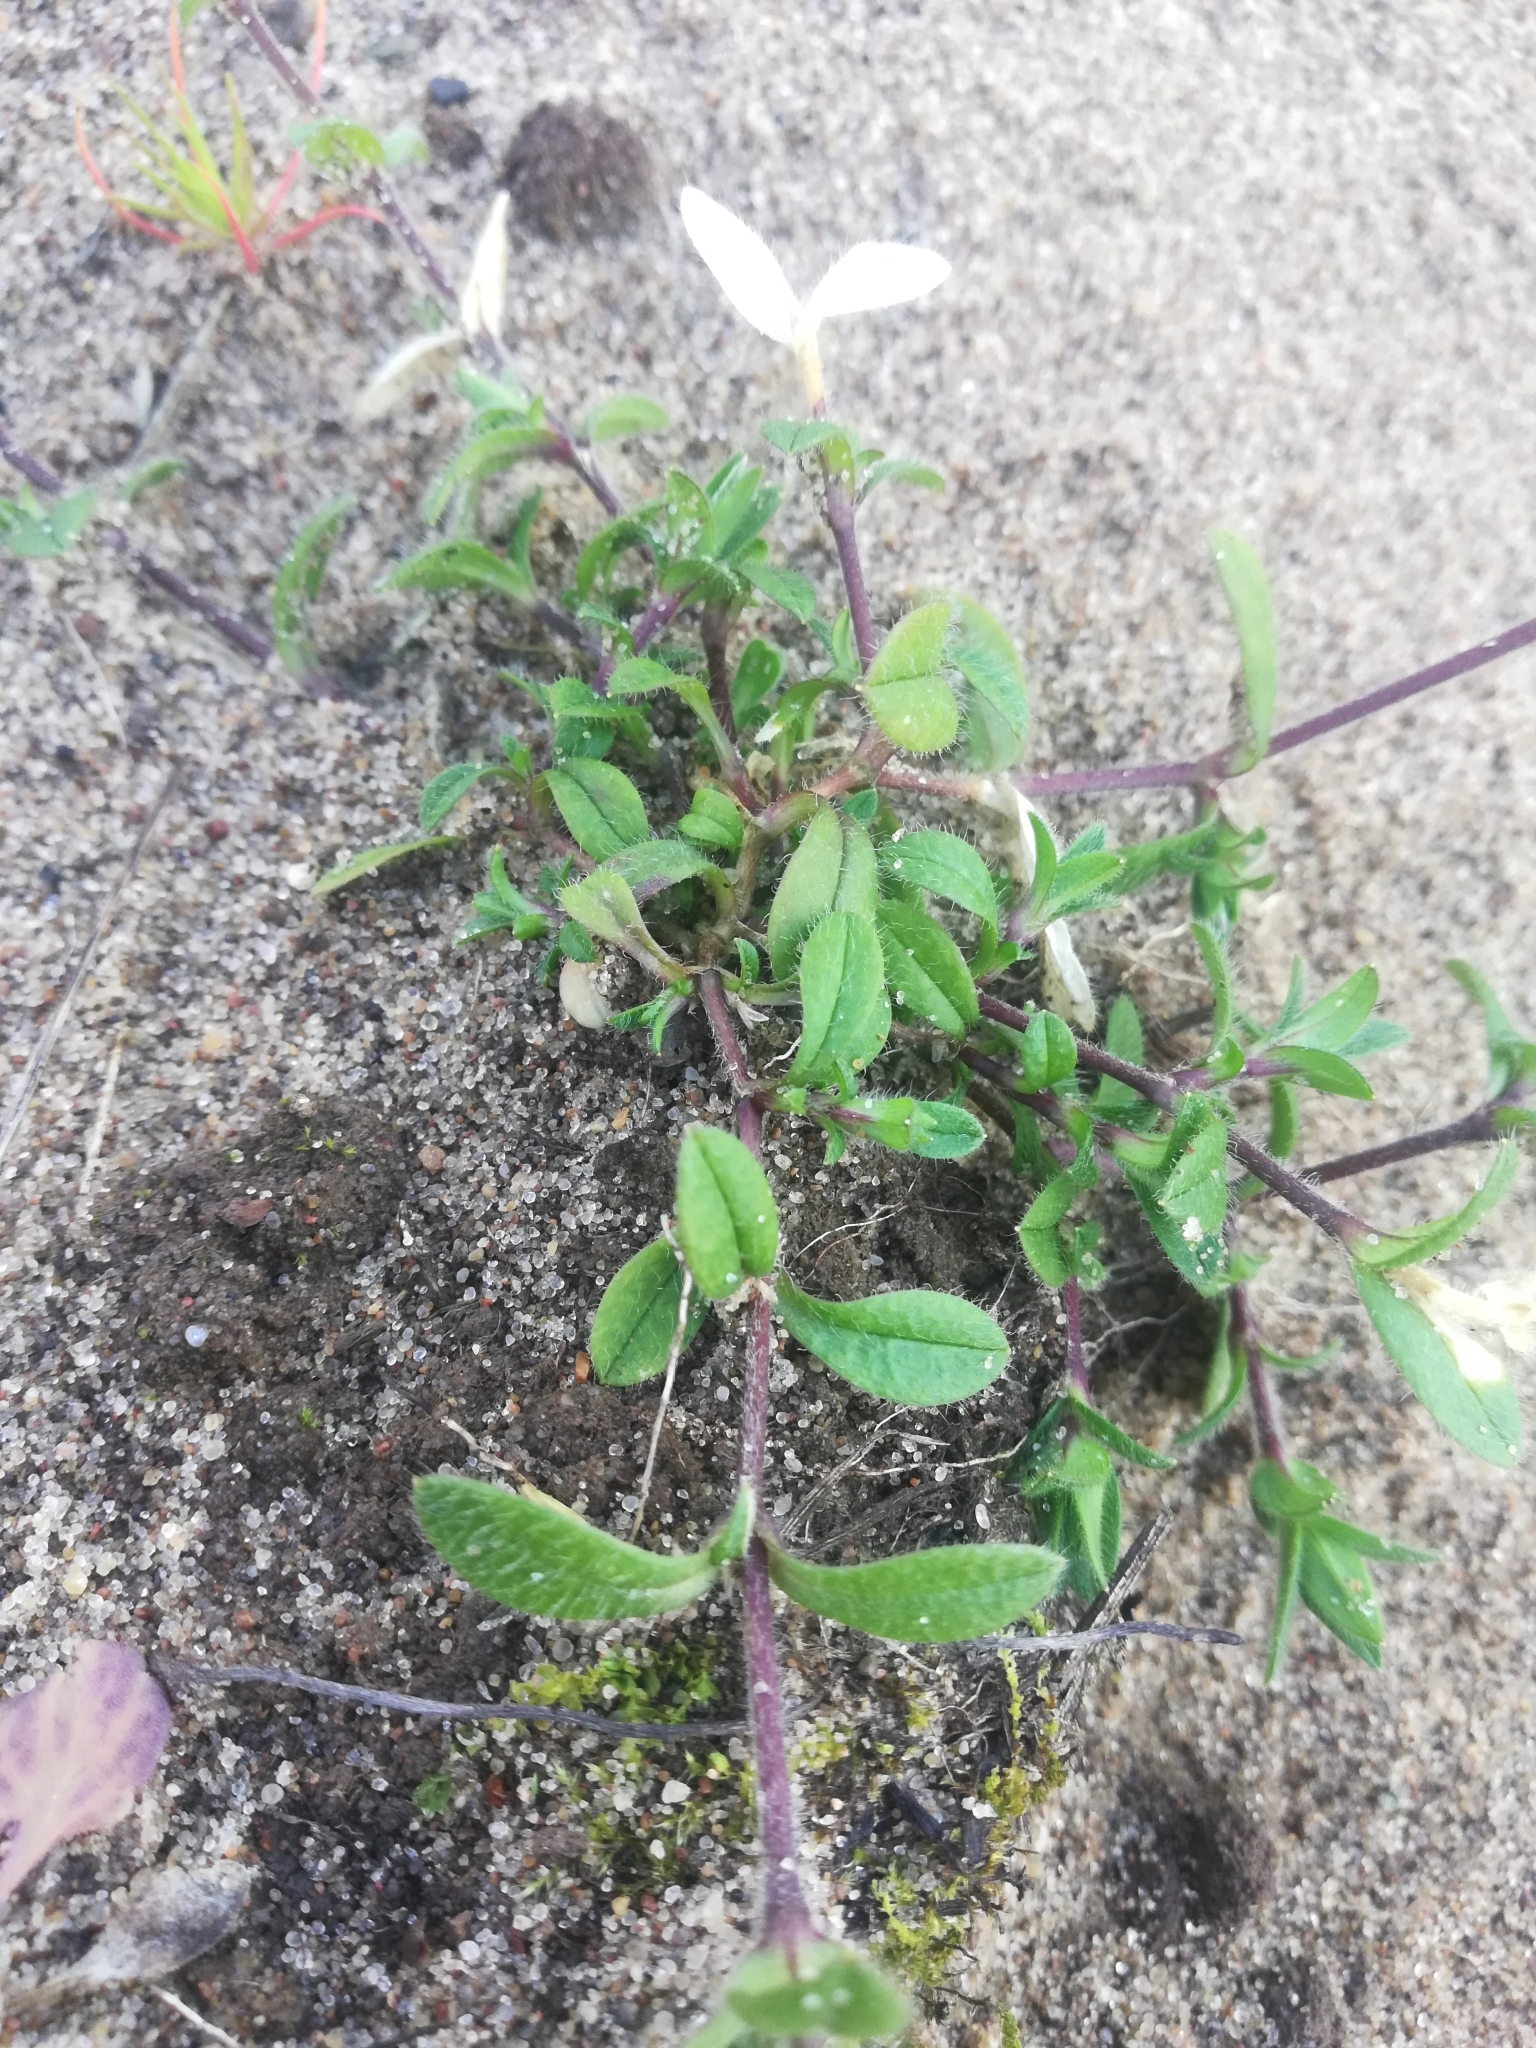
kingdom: Plantae
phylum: Tracheophyta
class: Magnoliopsida
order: Caryophyllales
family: Caryophyllaceae
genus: Cerastium
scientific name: Cerastium holosteoides
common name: Big chickweed
